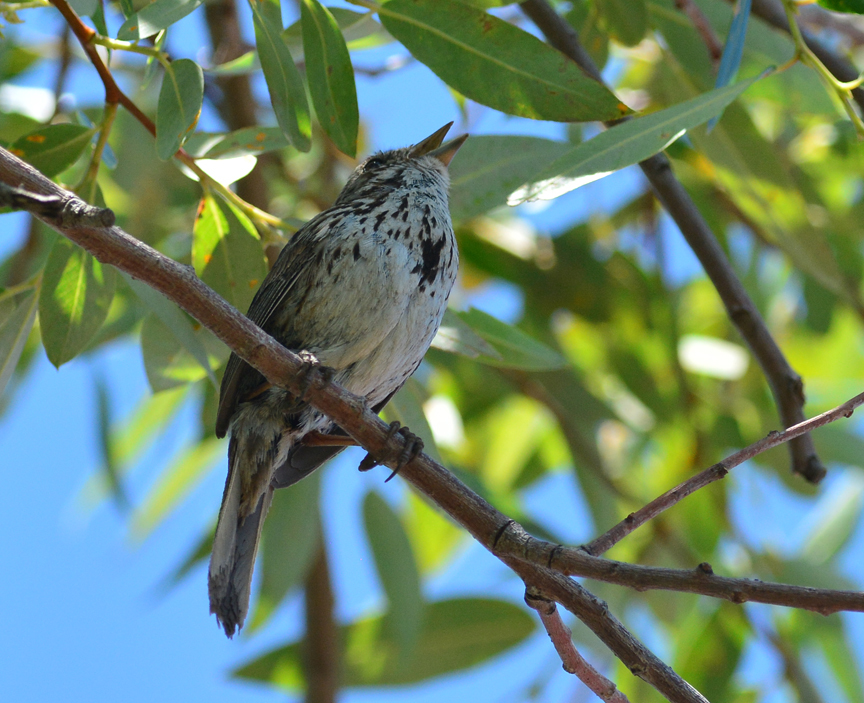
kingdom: Animalia
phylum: Chordata
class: Aves
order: Passeriformes
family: Passerellidae
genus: Melospiza
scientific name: Melospiza melodia
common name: Song sparrow
